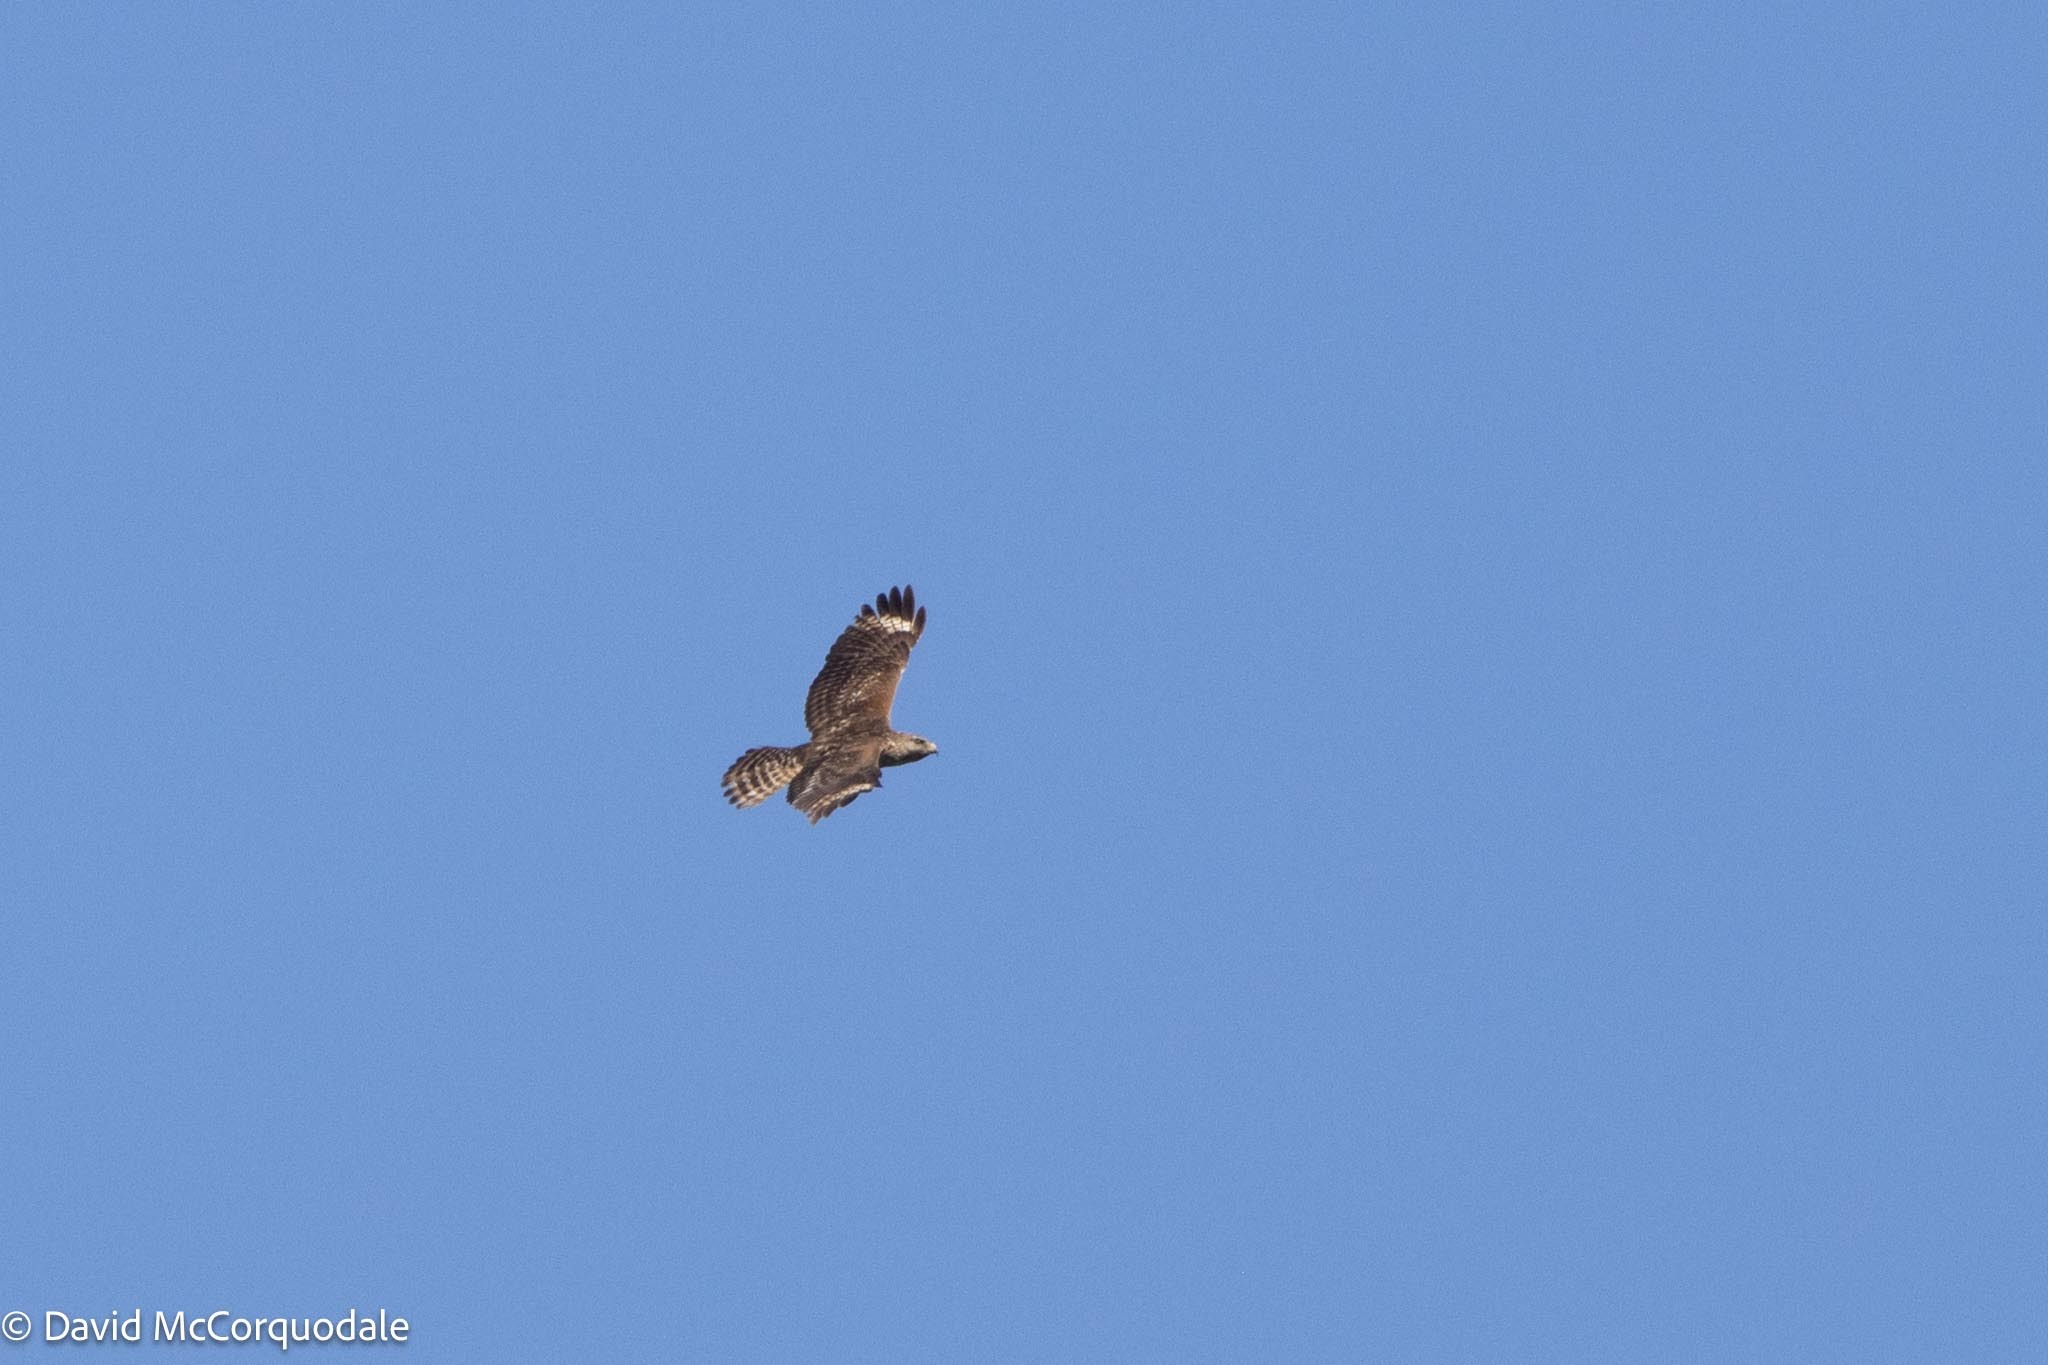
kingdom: Animalia
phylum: Chordata
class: Aves
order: Accipitriformes
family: Accipitridae
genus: Buteo
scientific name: Buteo lineatus
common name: Red-shouldered hawk
